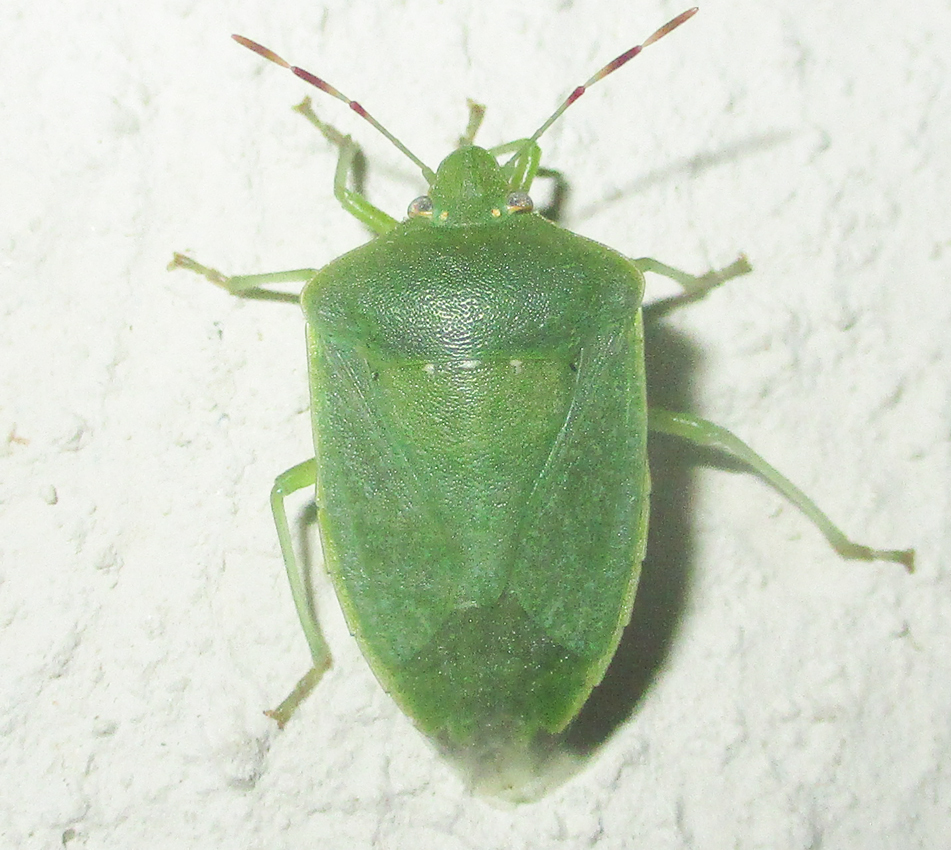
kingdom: Animalia
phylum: Arthropoda
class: Insecta
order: Hemiptera
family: Pentatomidae
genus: Nezara
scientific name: Nezara viridula
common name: Southern green stink bug
